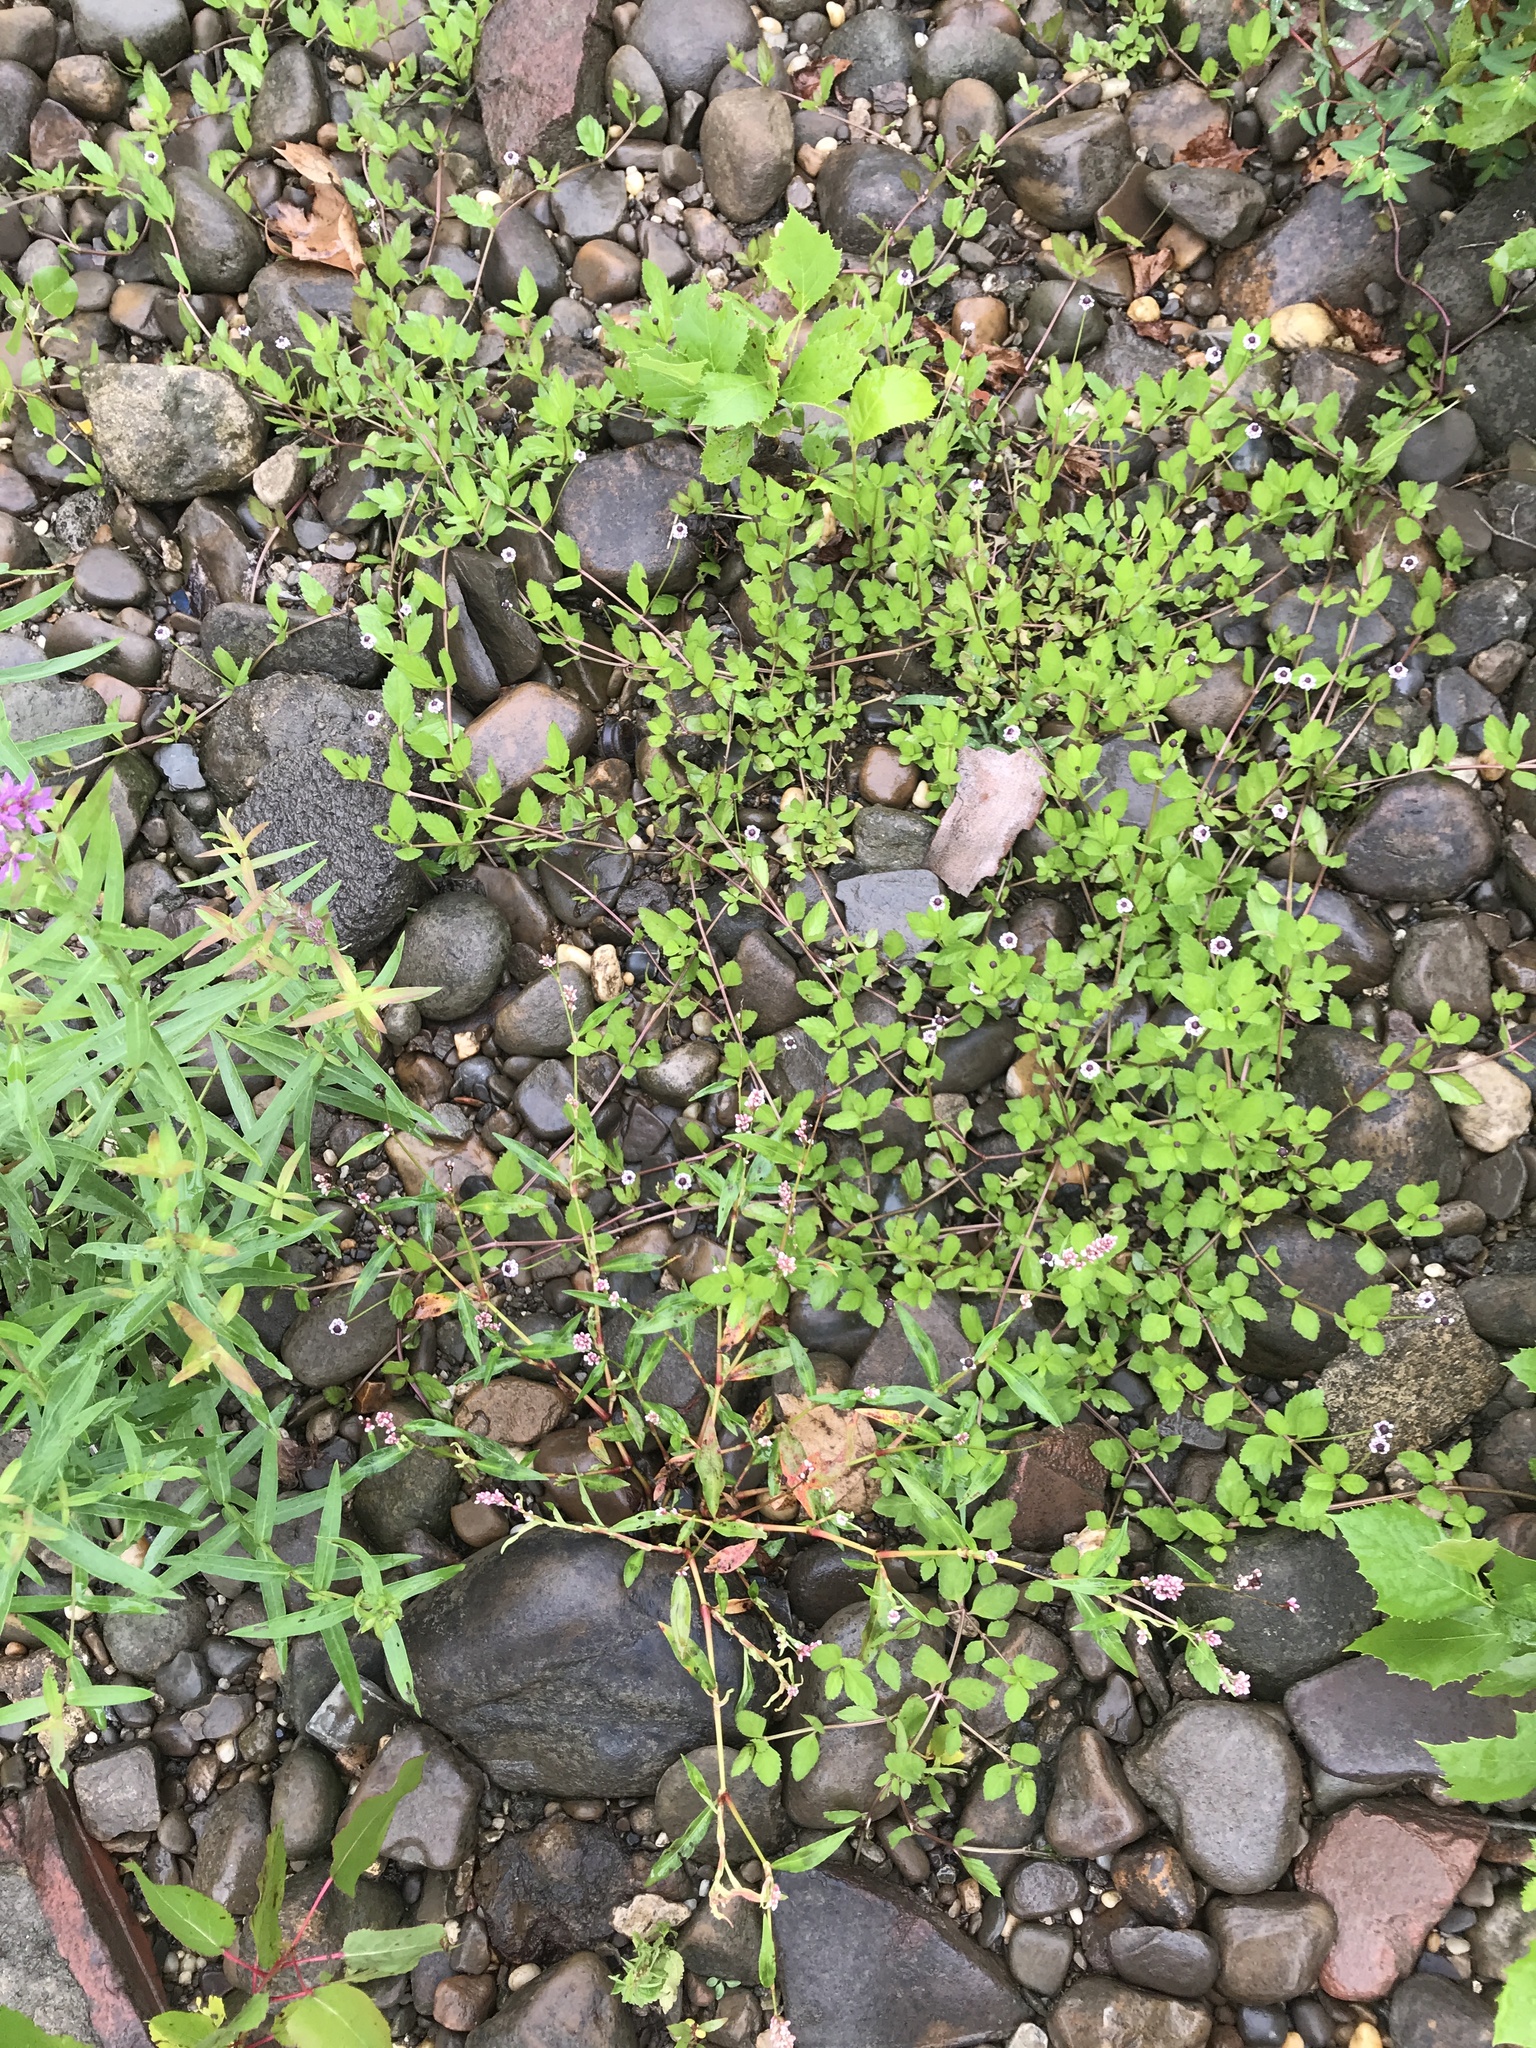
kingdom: Plantae
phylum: Tracheophyta
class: Magnoliopsida
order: Lamiales
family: Verbenaceae
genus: Phyla
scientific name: Phyla lanceolata
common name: Northern fogfruit
